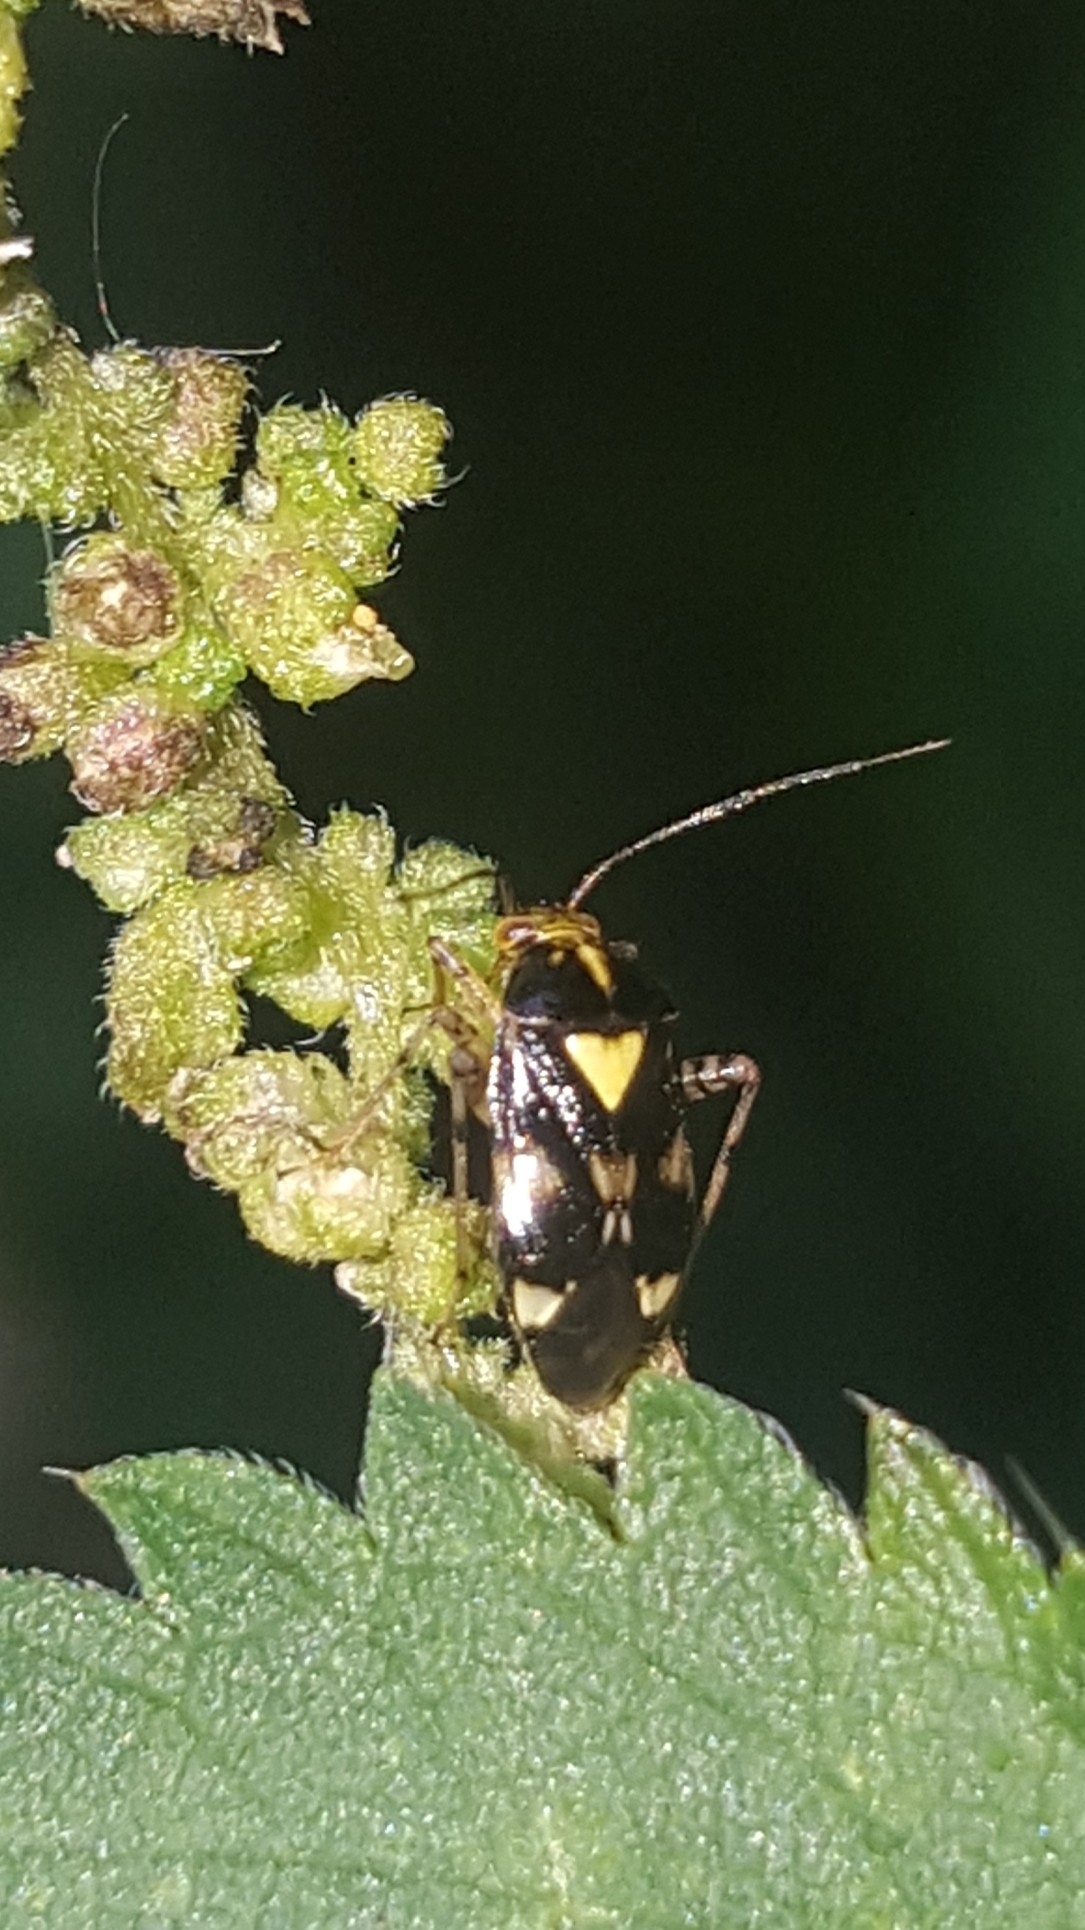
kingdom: Animalia
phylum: Arthropoda
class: Insecta
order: Hemiptera
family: Miridae
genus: Liocoris
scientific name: Liocoris tripustulatus
